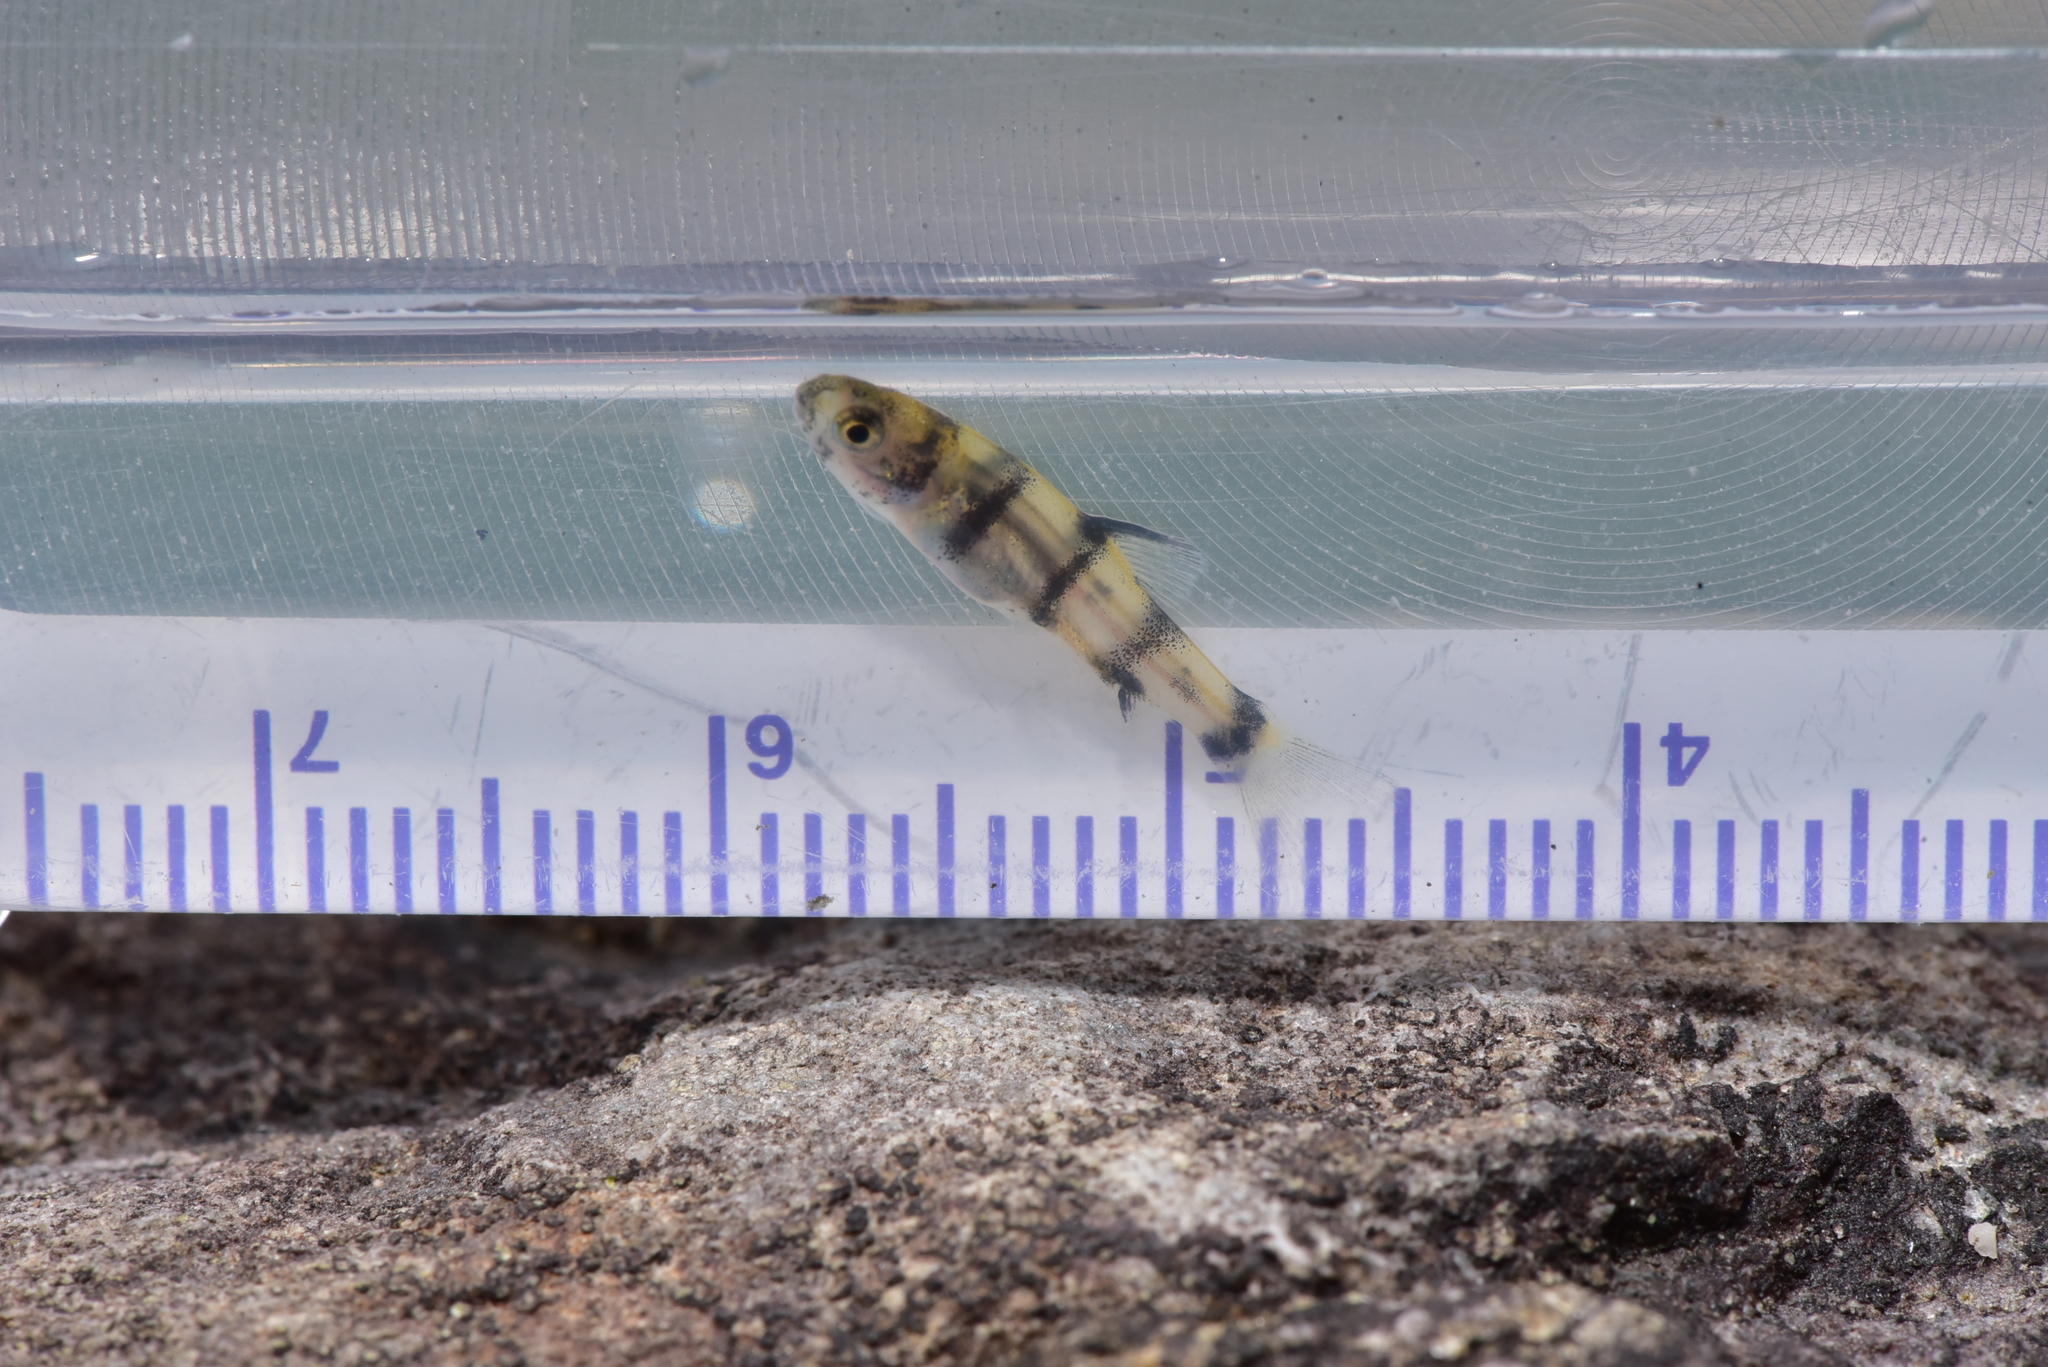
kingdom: Animalia
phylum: Chordata
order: Cypriniformes
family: Cyprinidae
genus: Acrossocheilus
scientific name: Acrossocheilus paradoxus
